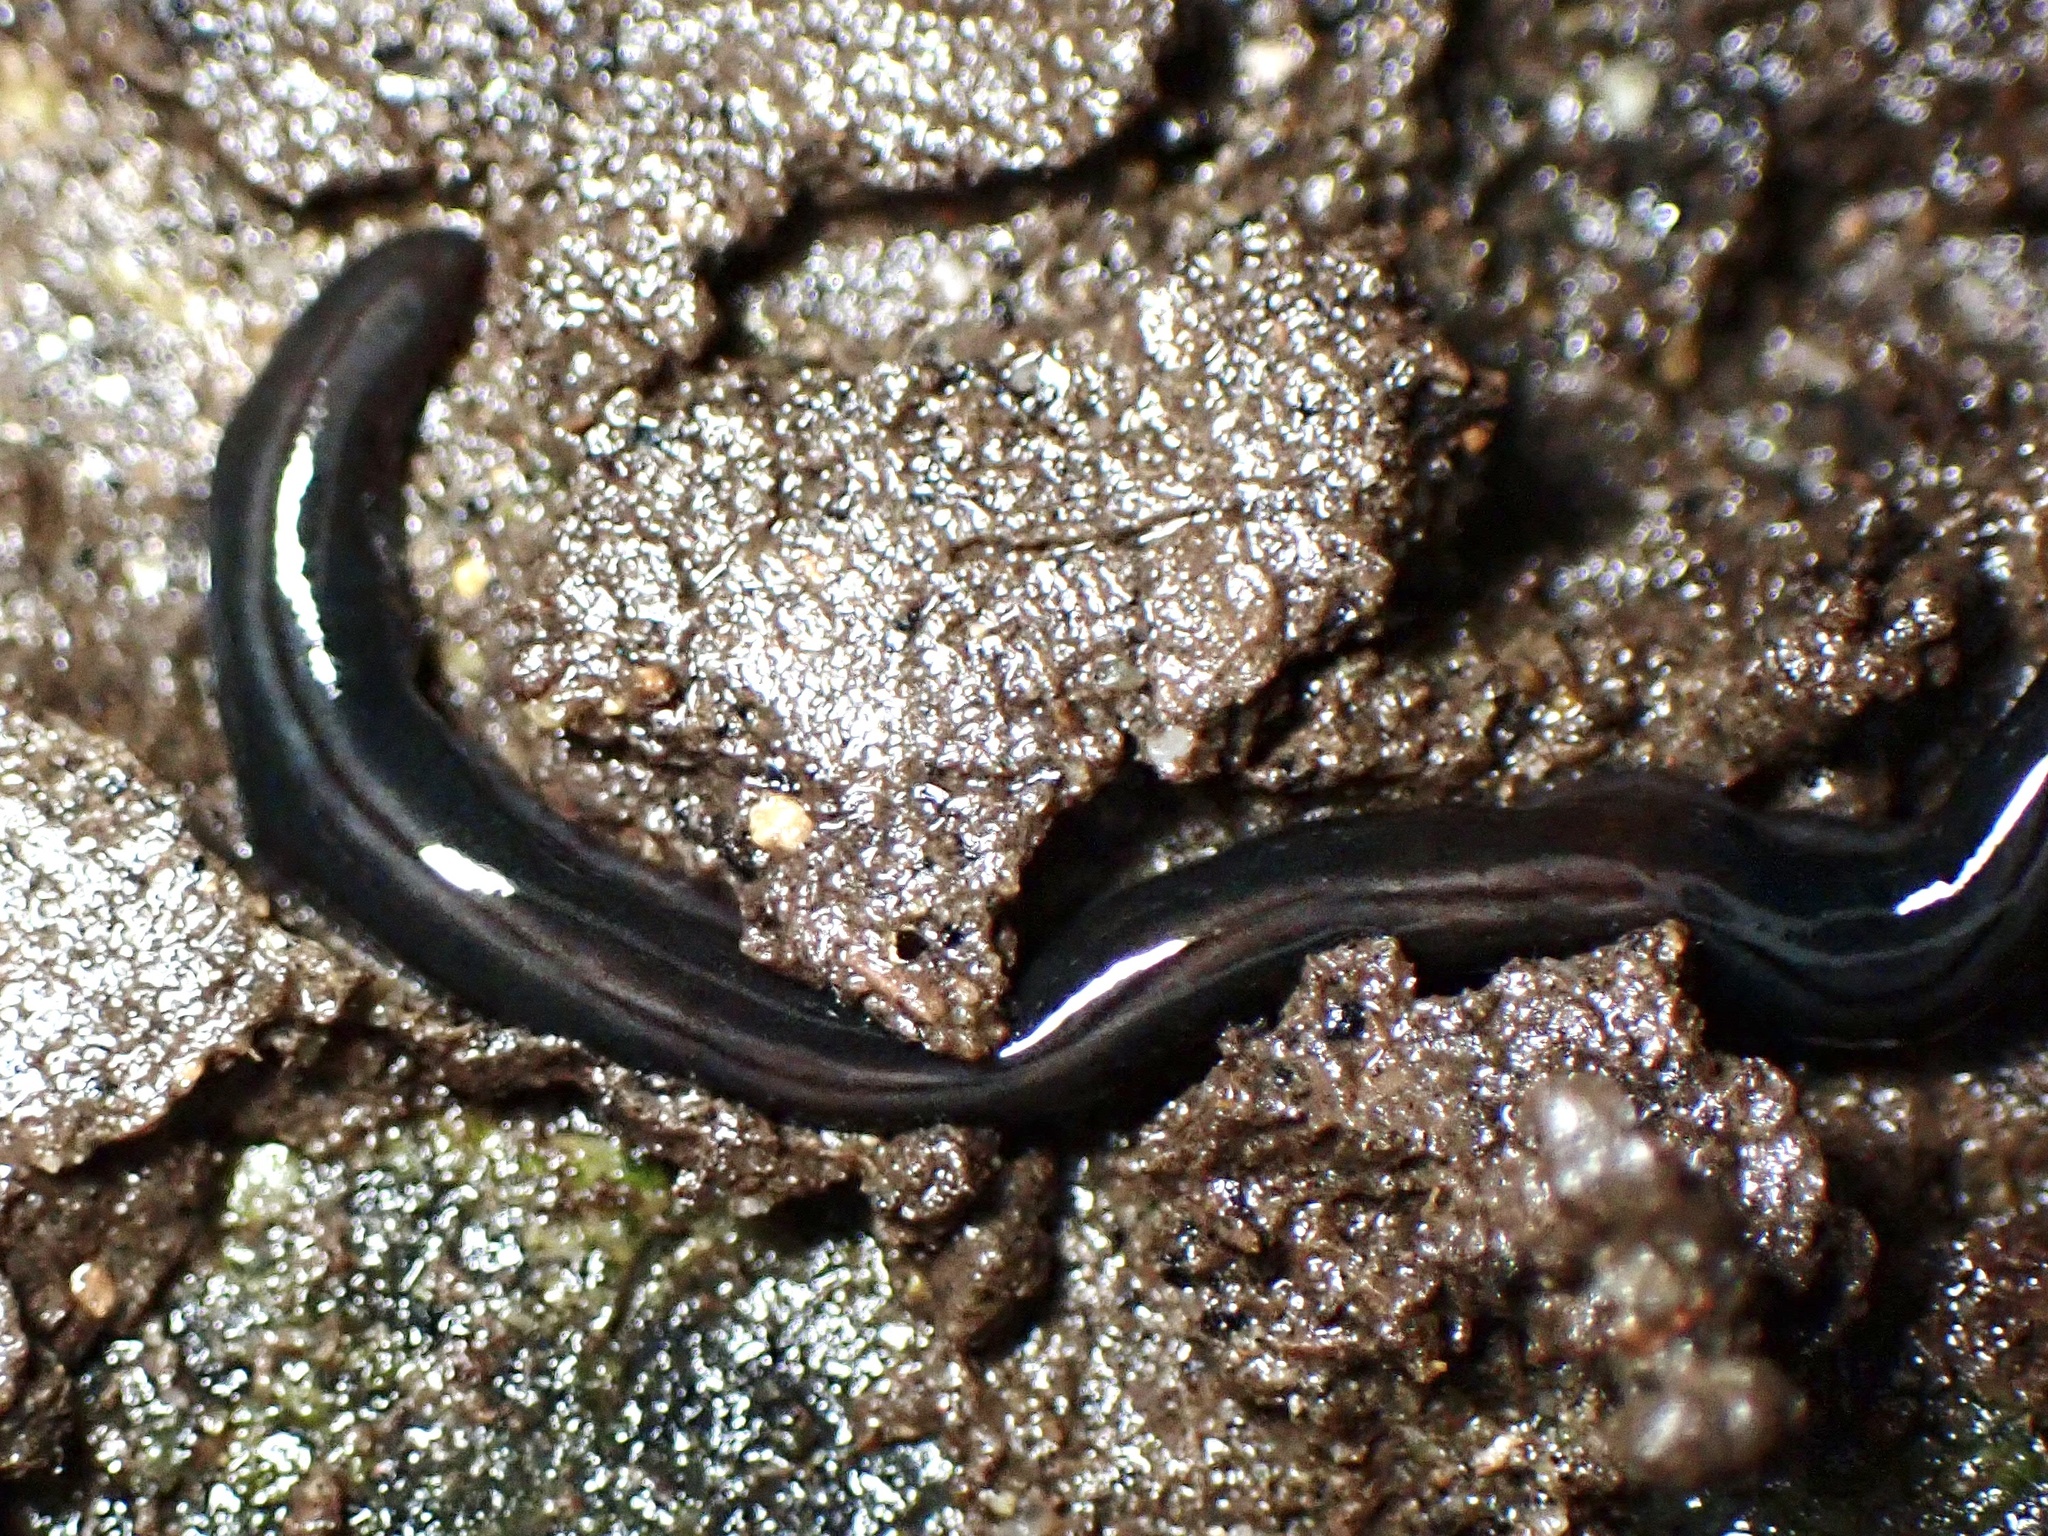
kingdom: Animalia
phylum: Platyhelminthes
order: Tricladida
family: Geoplanidae
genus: Parakontikia
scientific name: Parakontikia ventrolineata
